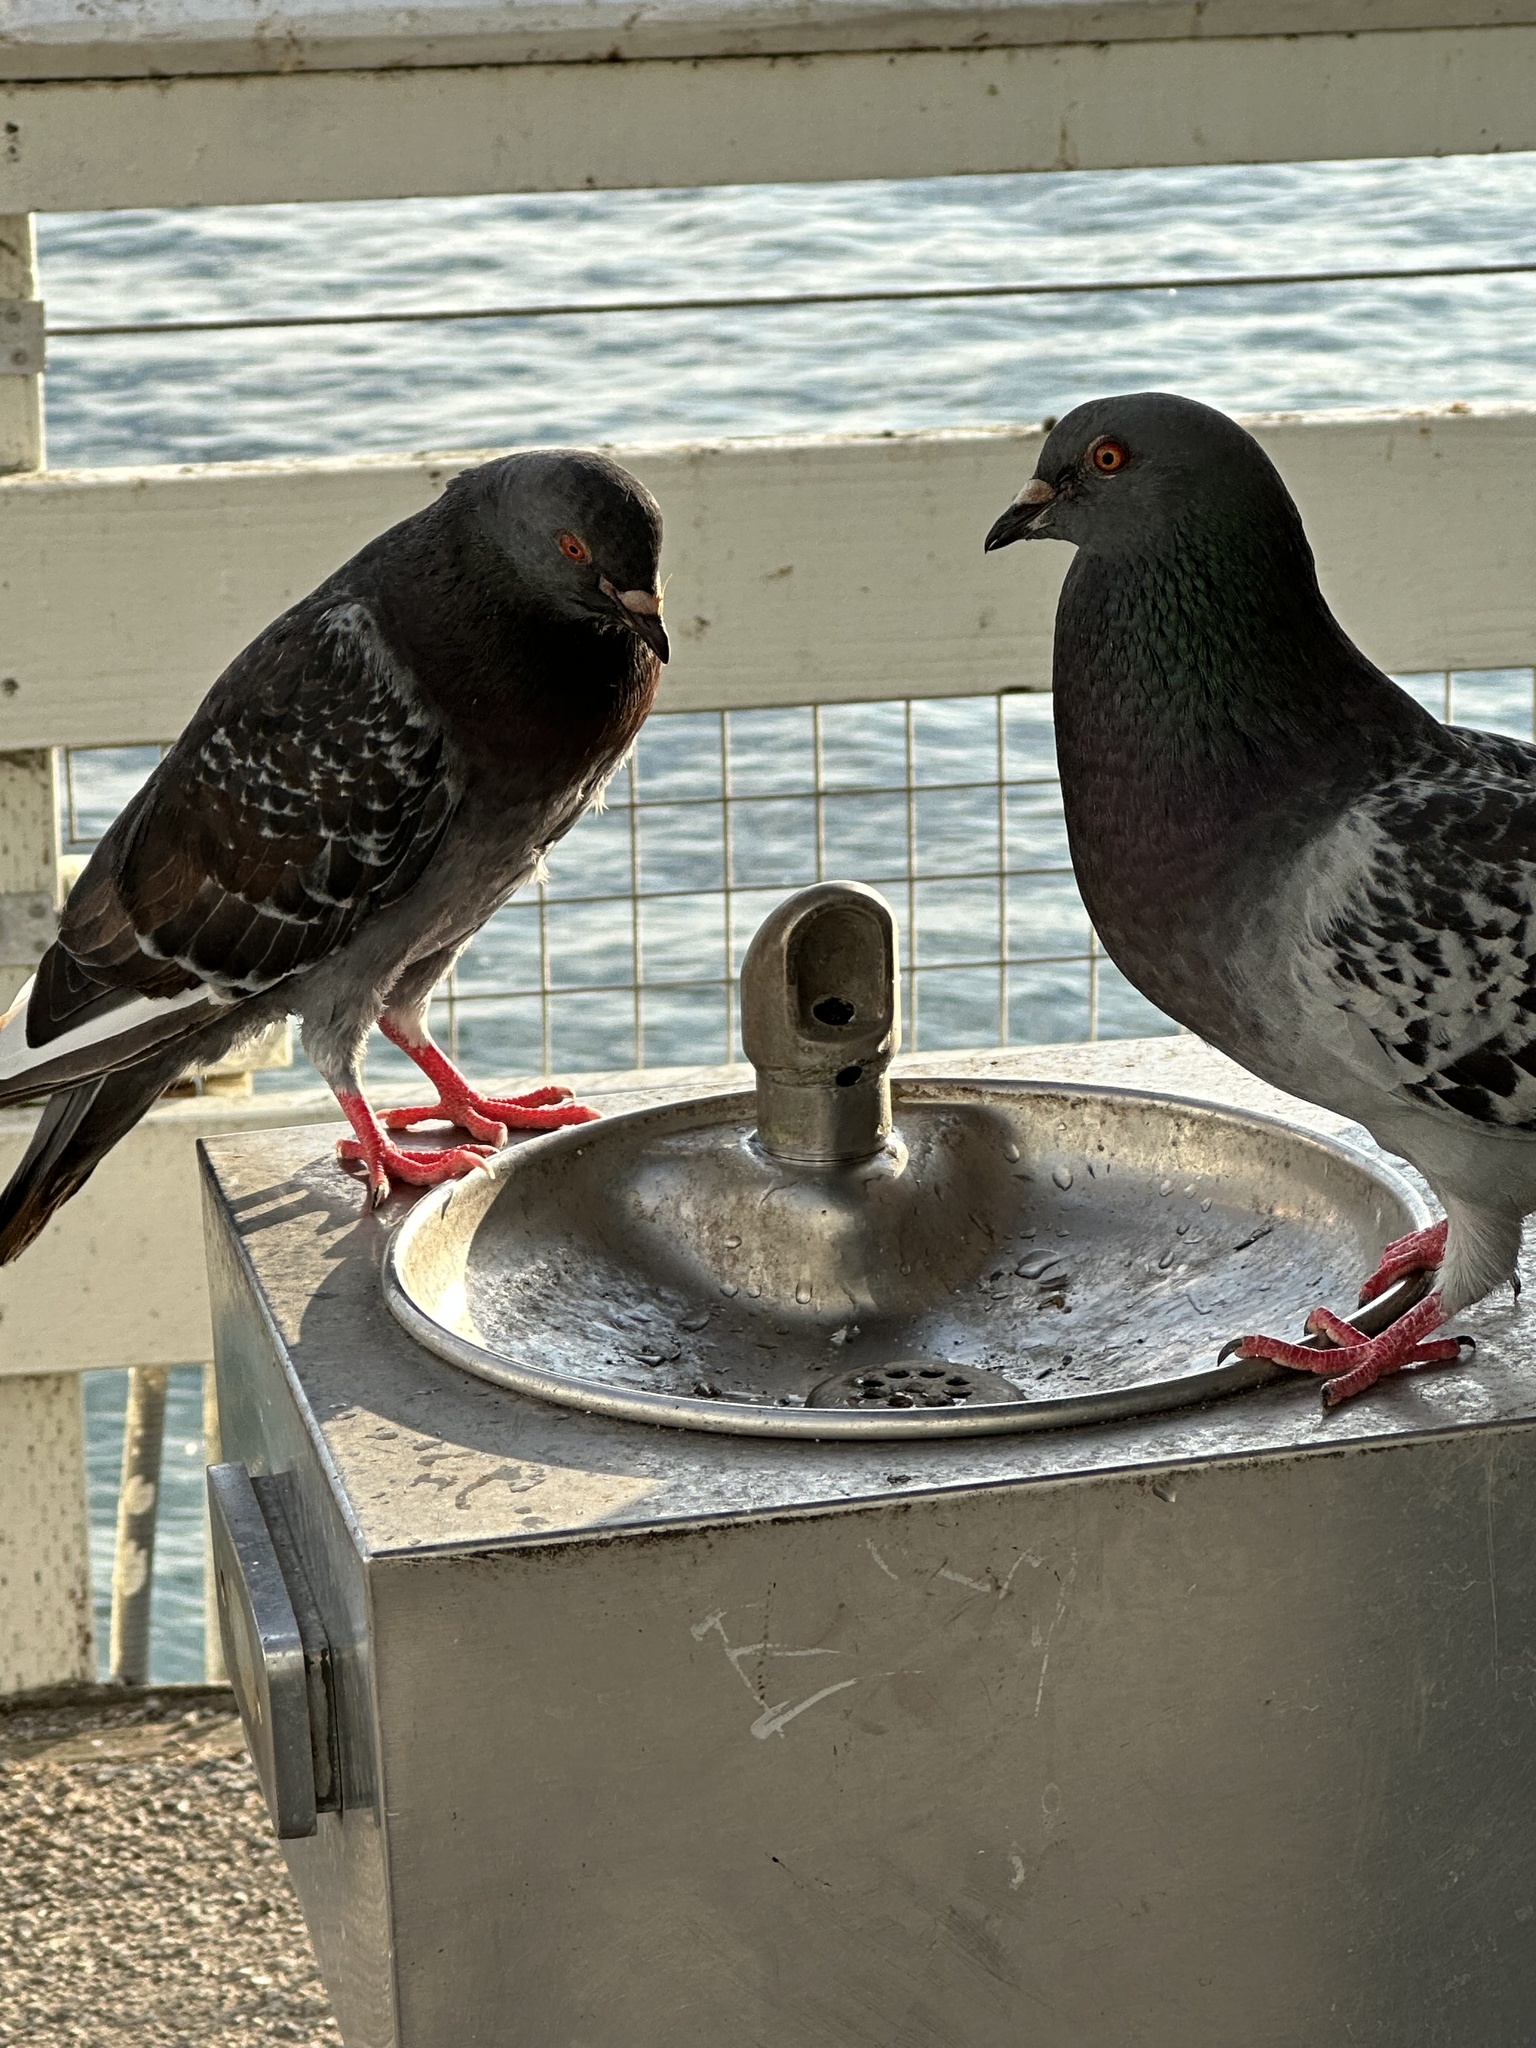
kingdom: Animalia
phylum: Chordata
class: Aves
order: Columbiformes
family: Columbidae
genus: Columba
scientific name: Columba livia
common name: Rock pigeon
